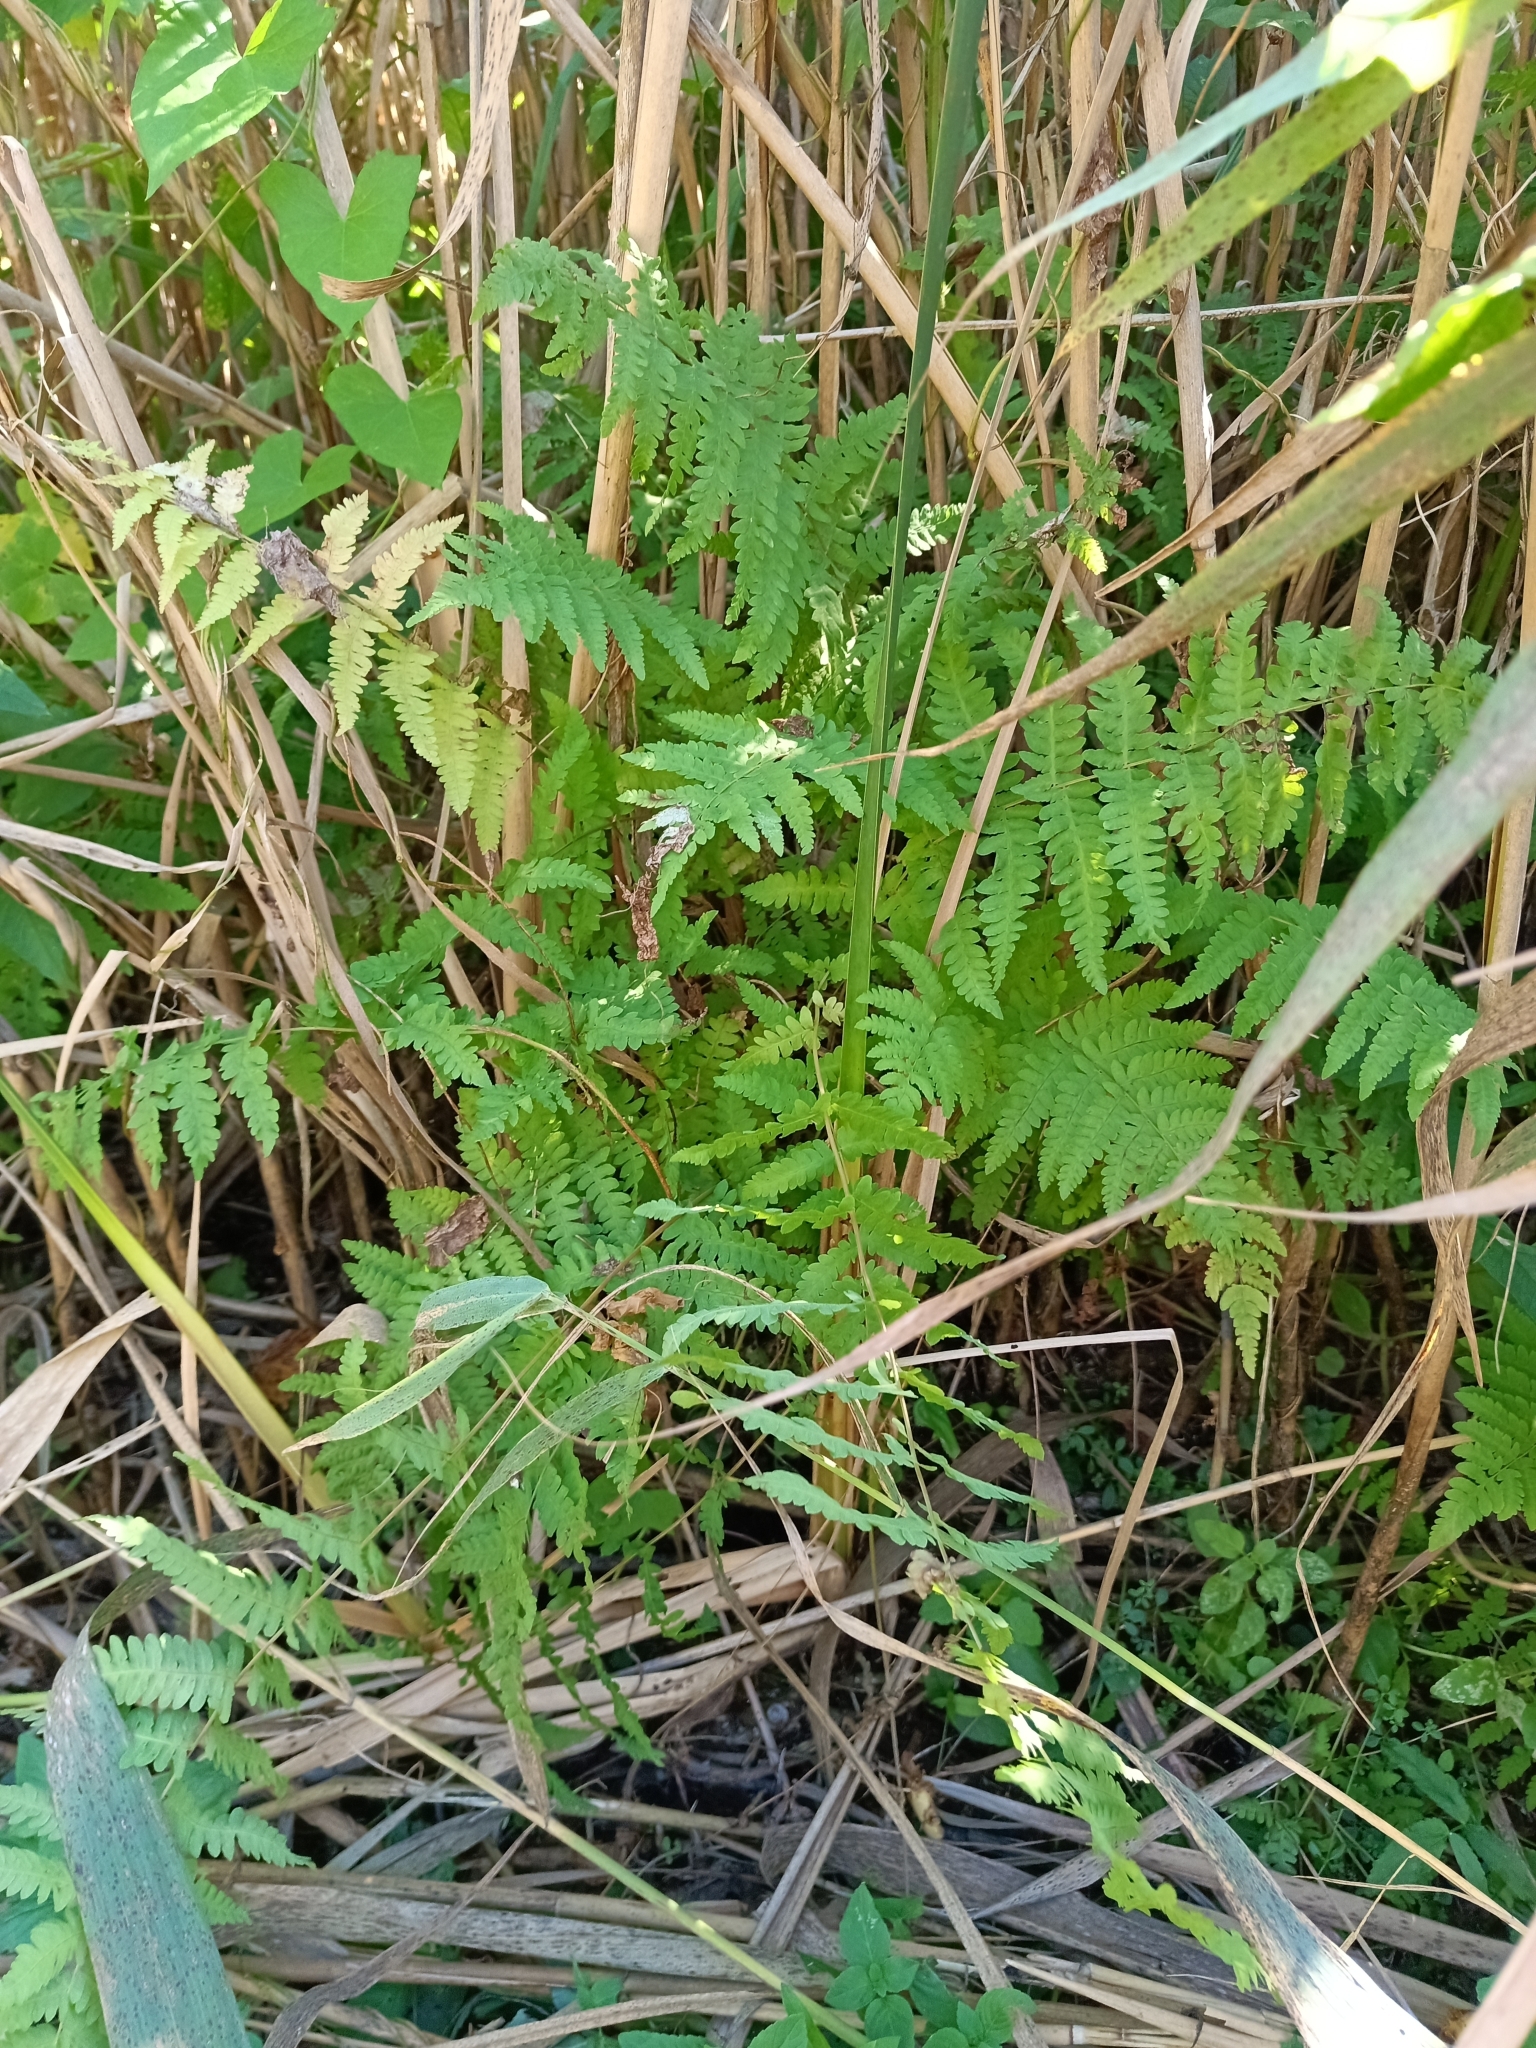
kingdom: Plantae
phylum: Tracheophyta
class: Polypodiopsida
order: Polypodiales
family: Thelypteridaceae
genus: Thelypteris
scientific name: Thelypteris palustris
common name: Marsh fern
